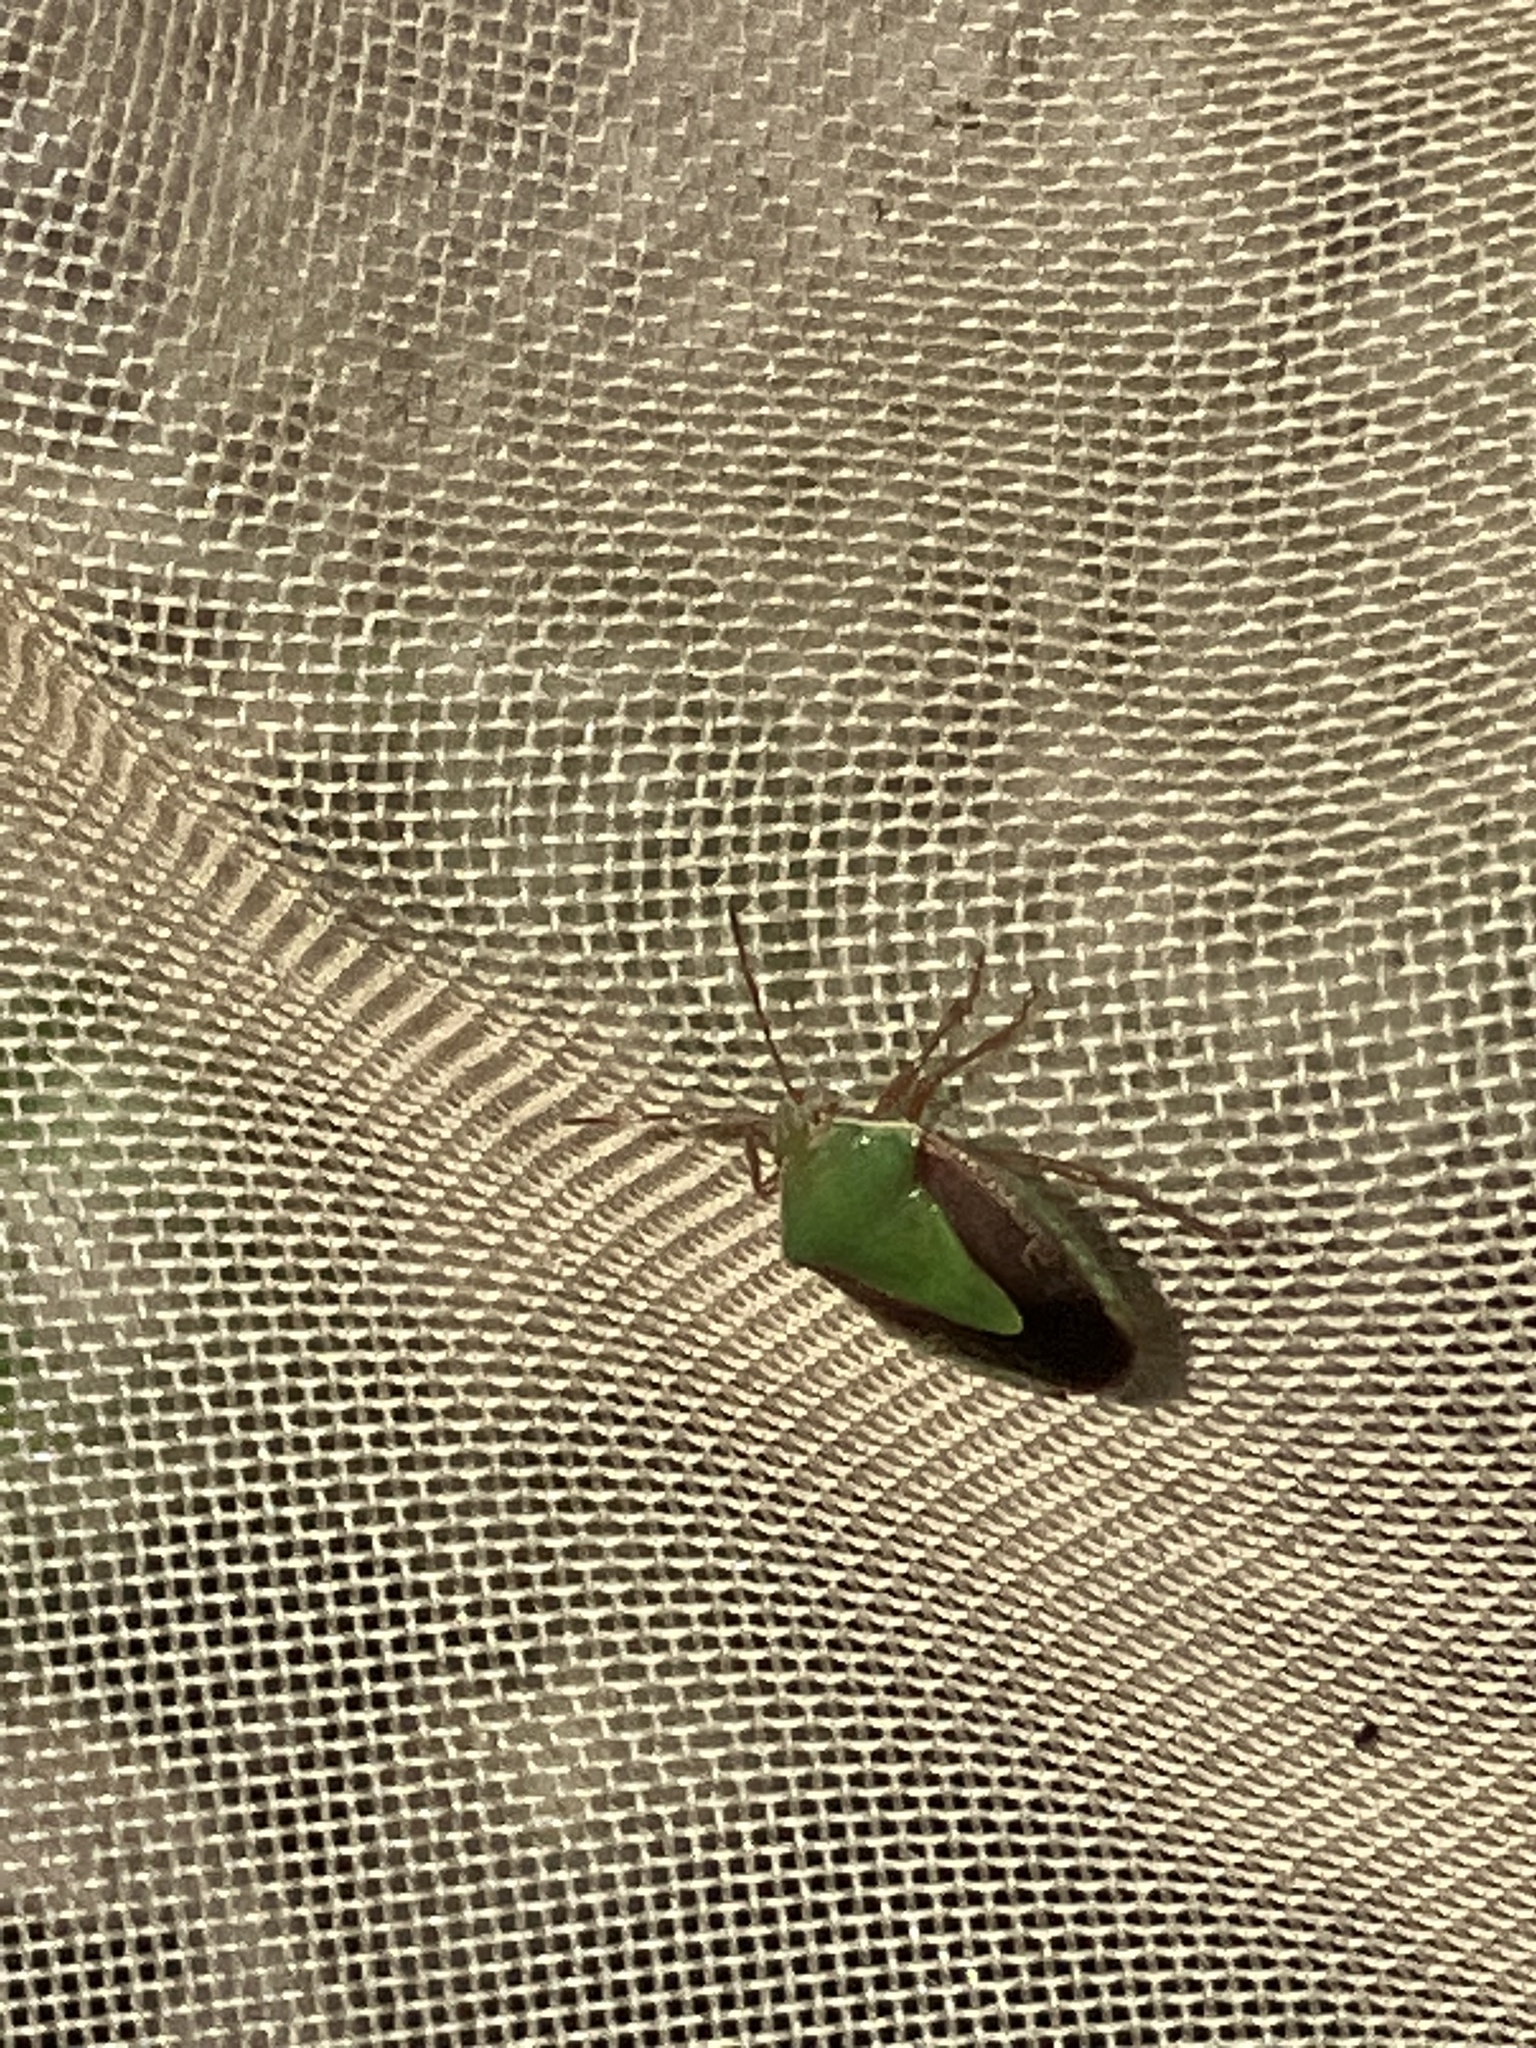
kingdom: Animalia
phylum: Arthropoda
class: Insecta
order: Hemiptera
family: Pentatomidae
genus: Edessa
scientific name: Edessa meditabunda
